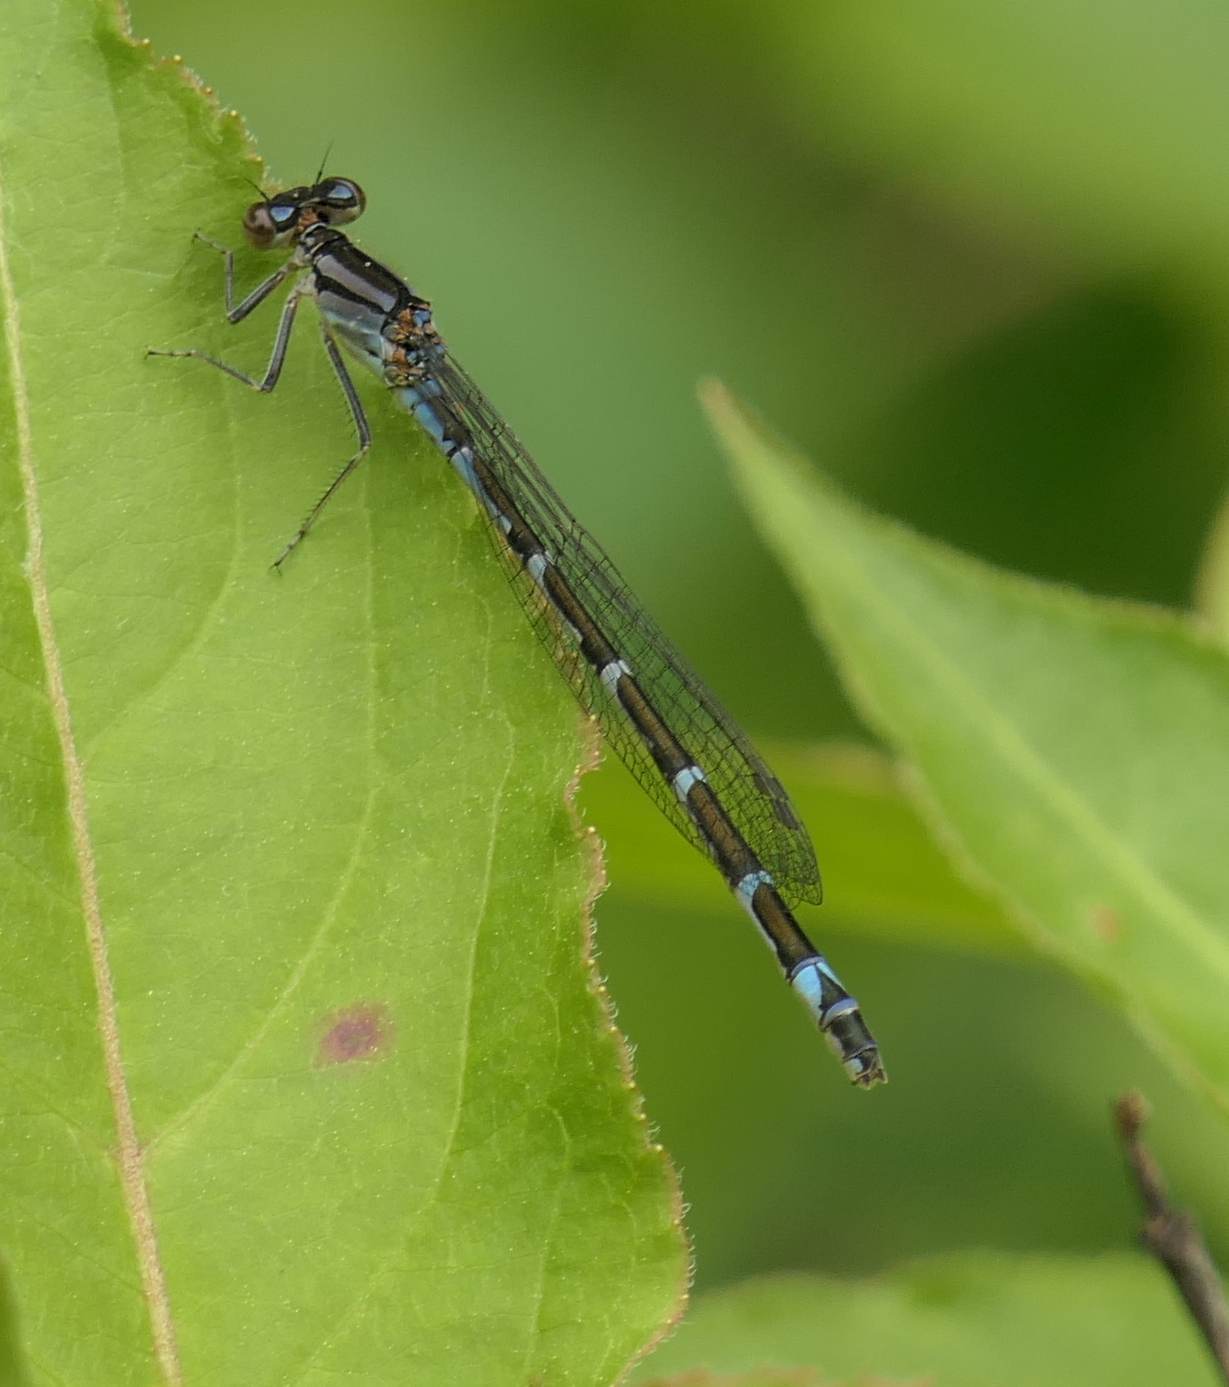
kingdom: Animalia
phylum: Arthropoda
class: Insecta
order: Odonata
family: Coenagrionidae
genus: Enallagma
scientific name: Enallagma geminatum
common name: Skimming bluet
